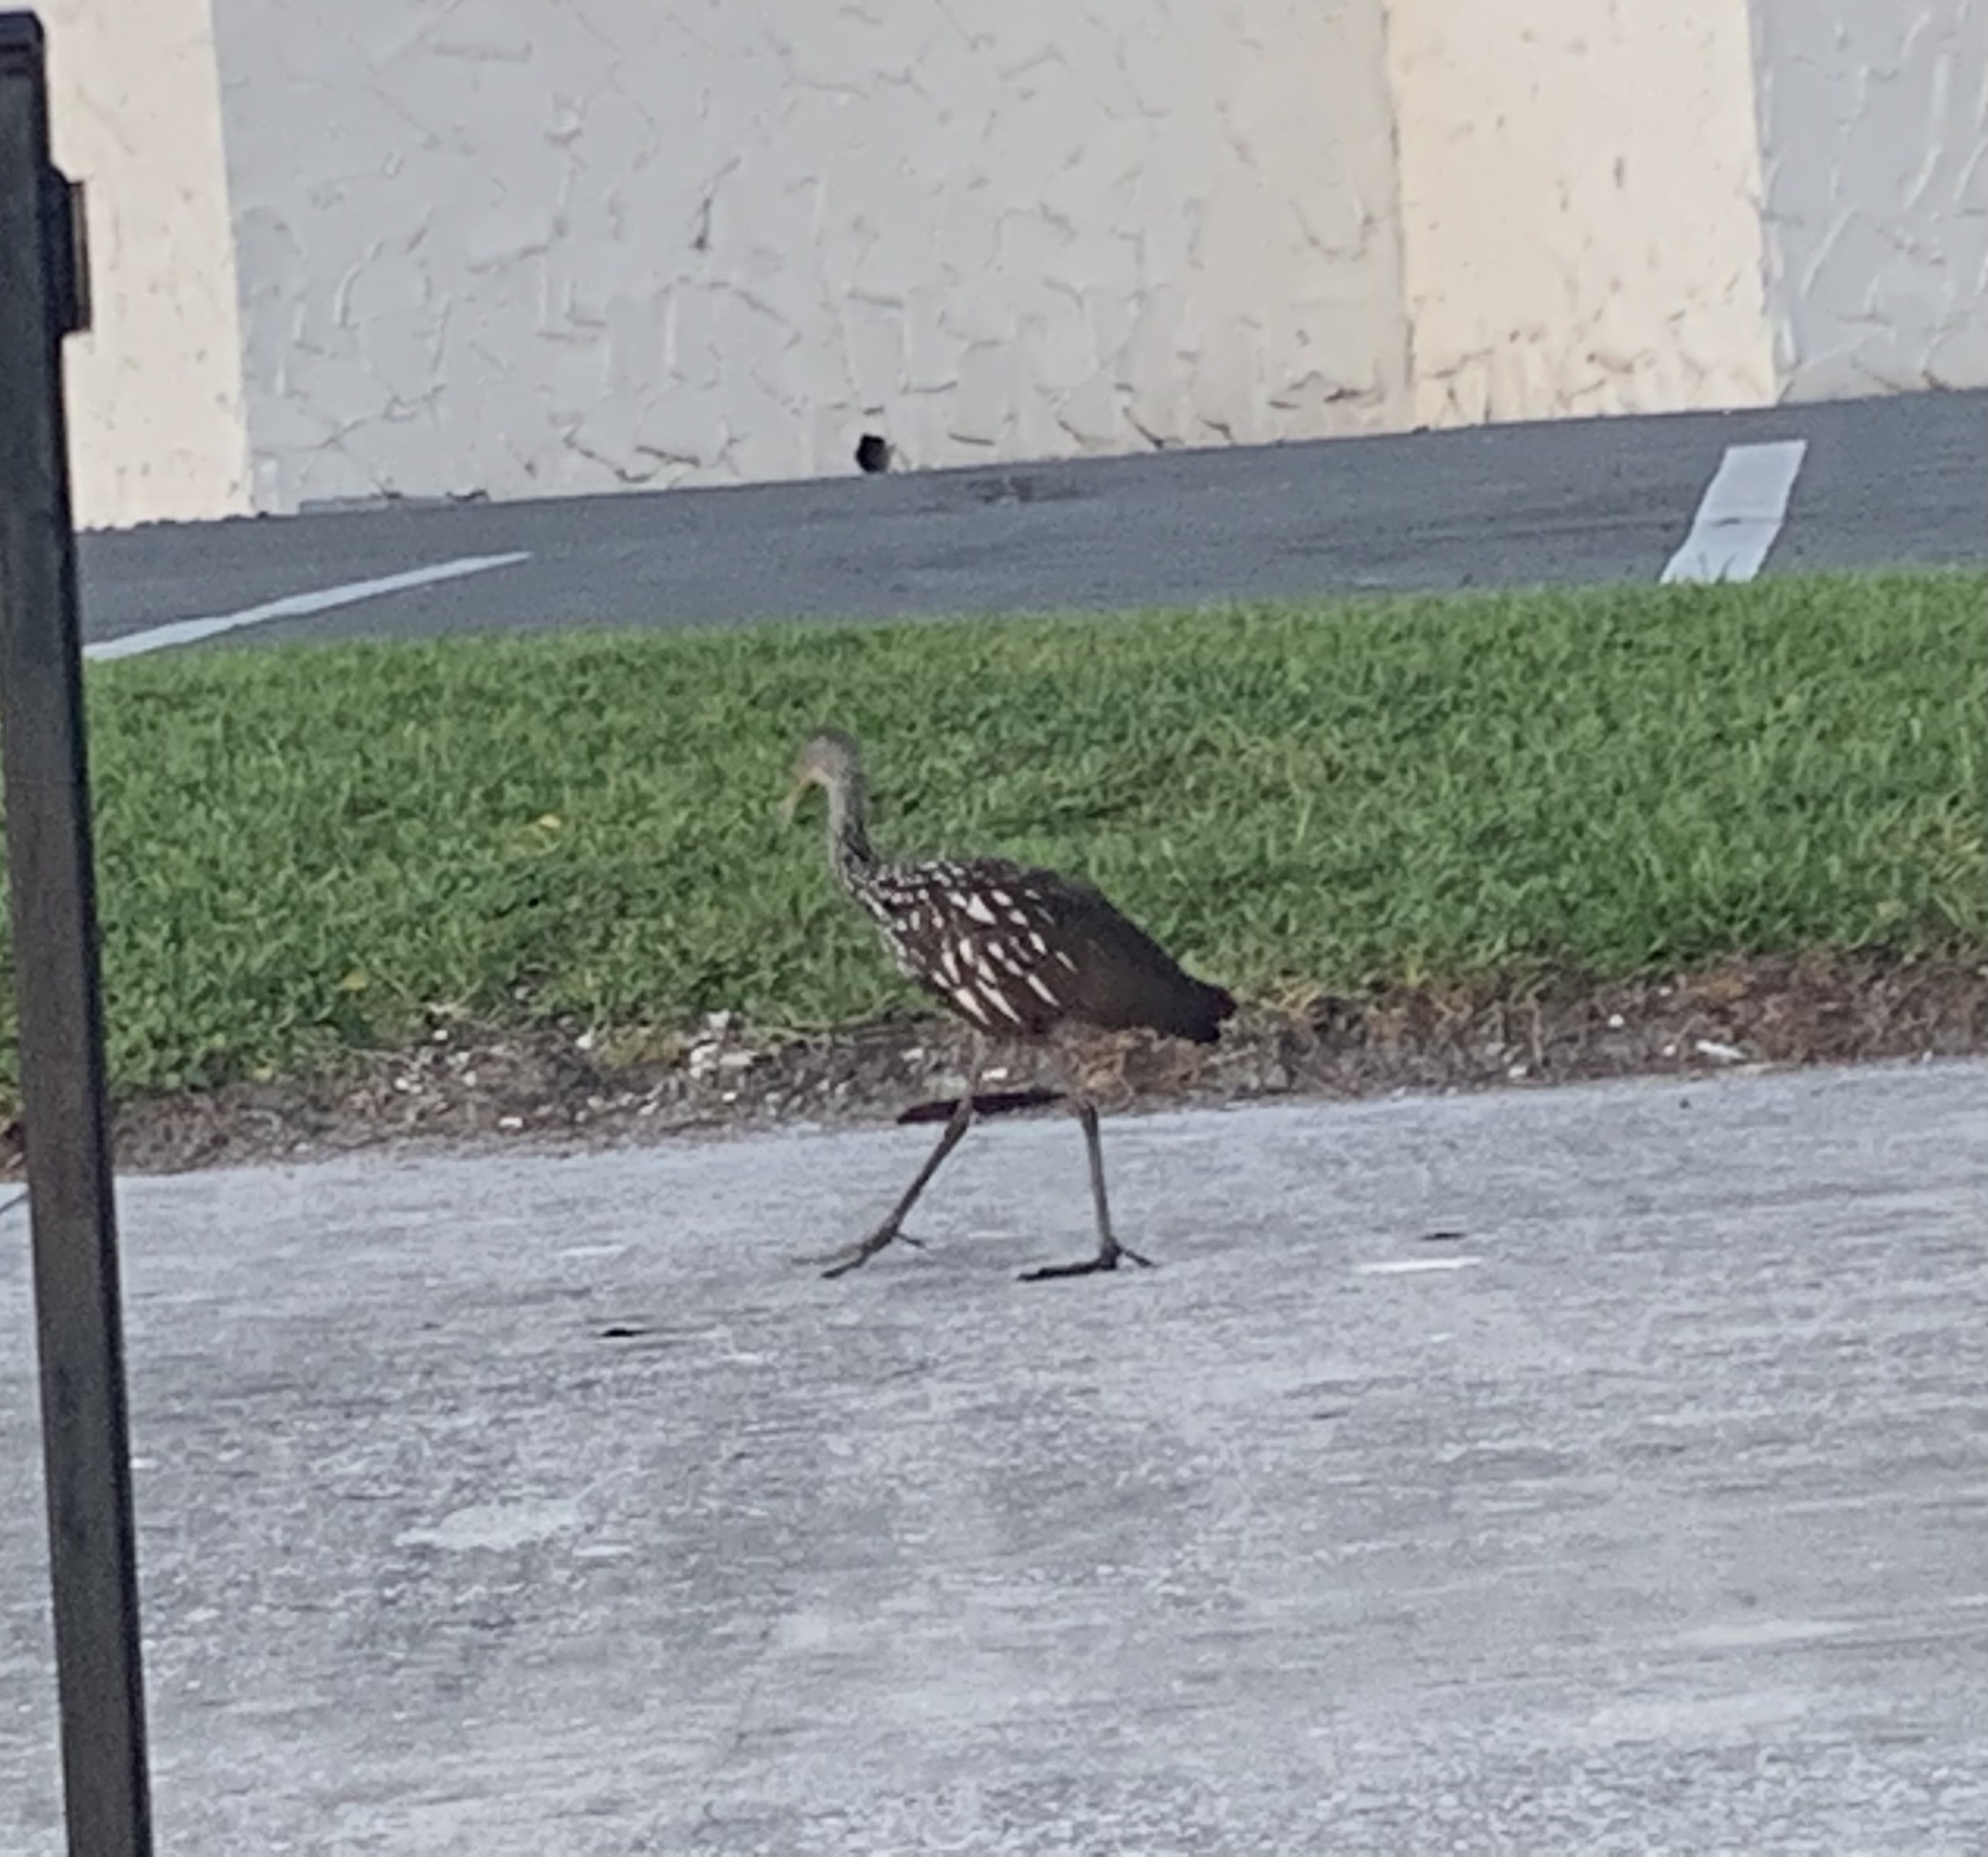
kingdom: Animalia
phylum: Chordata
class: Aves
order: Gruiformes
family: Aramidae
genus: Aramus
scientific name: Aramus guarauna
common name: Limpkin
